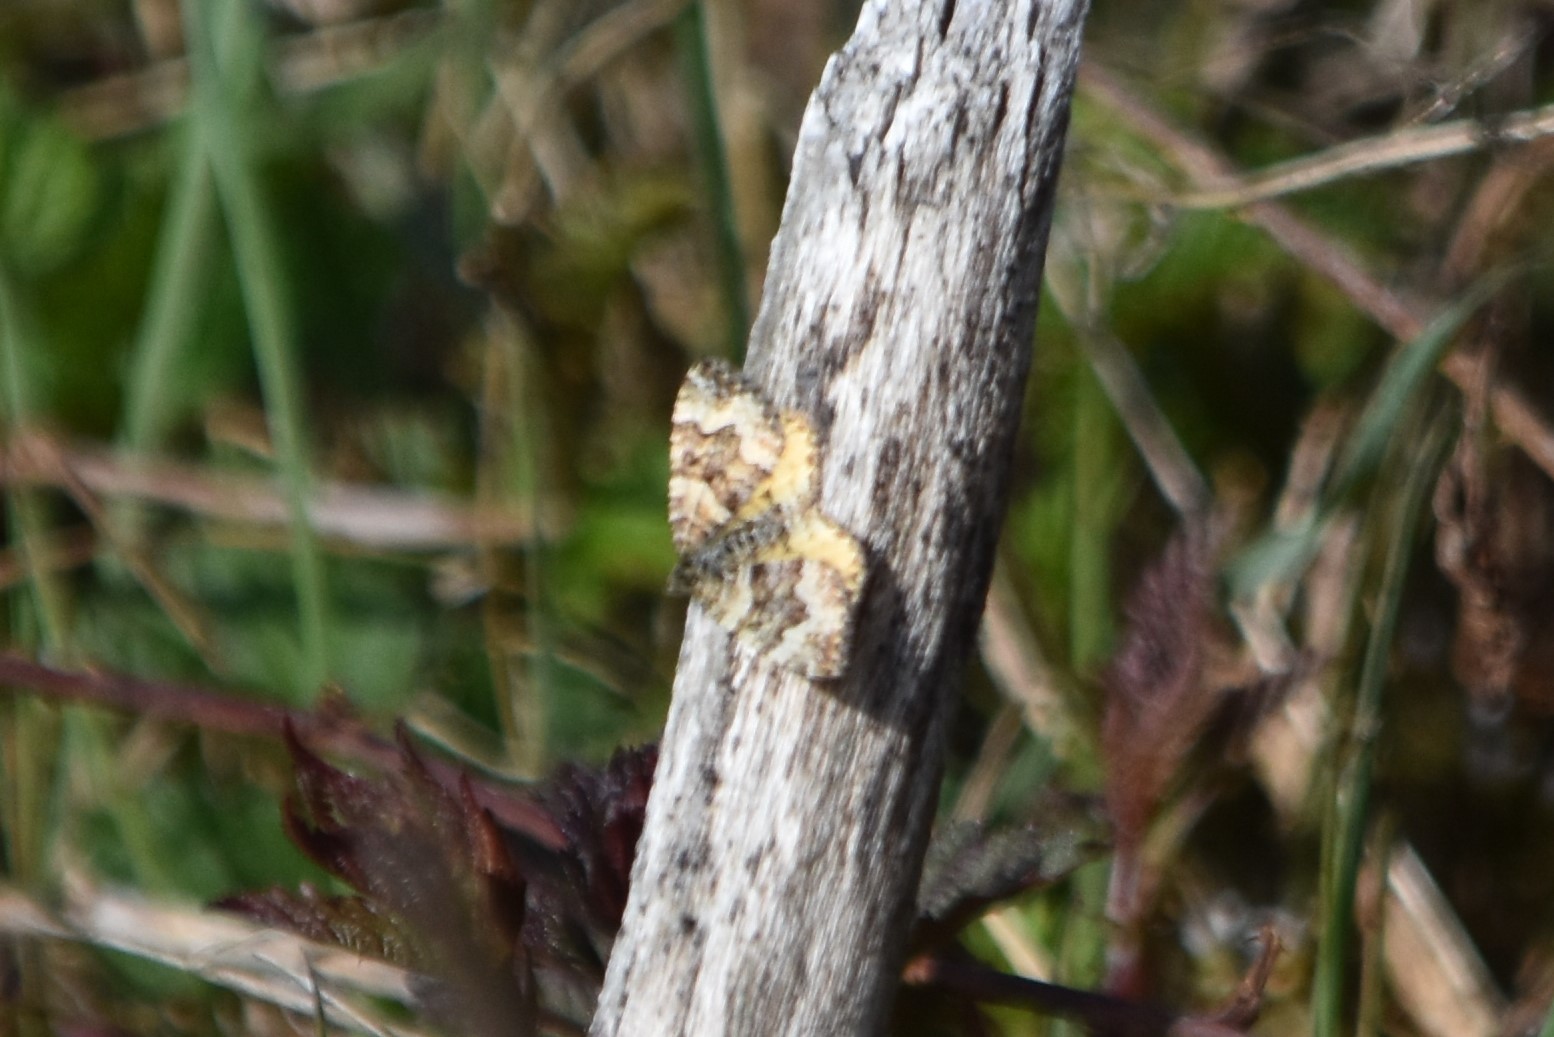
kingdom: Animalia
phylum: Arthropoda
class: Insecta
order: Lepidoptera
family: Geometridae
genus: Epirrhoe
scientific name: Epirrhoe plebeculata
